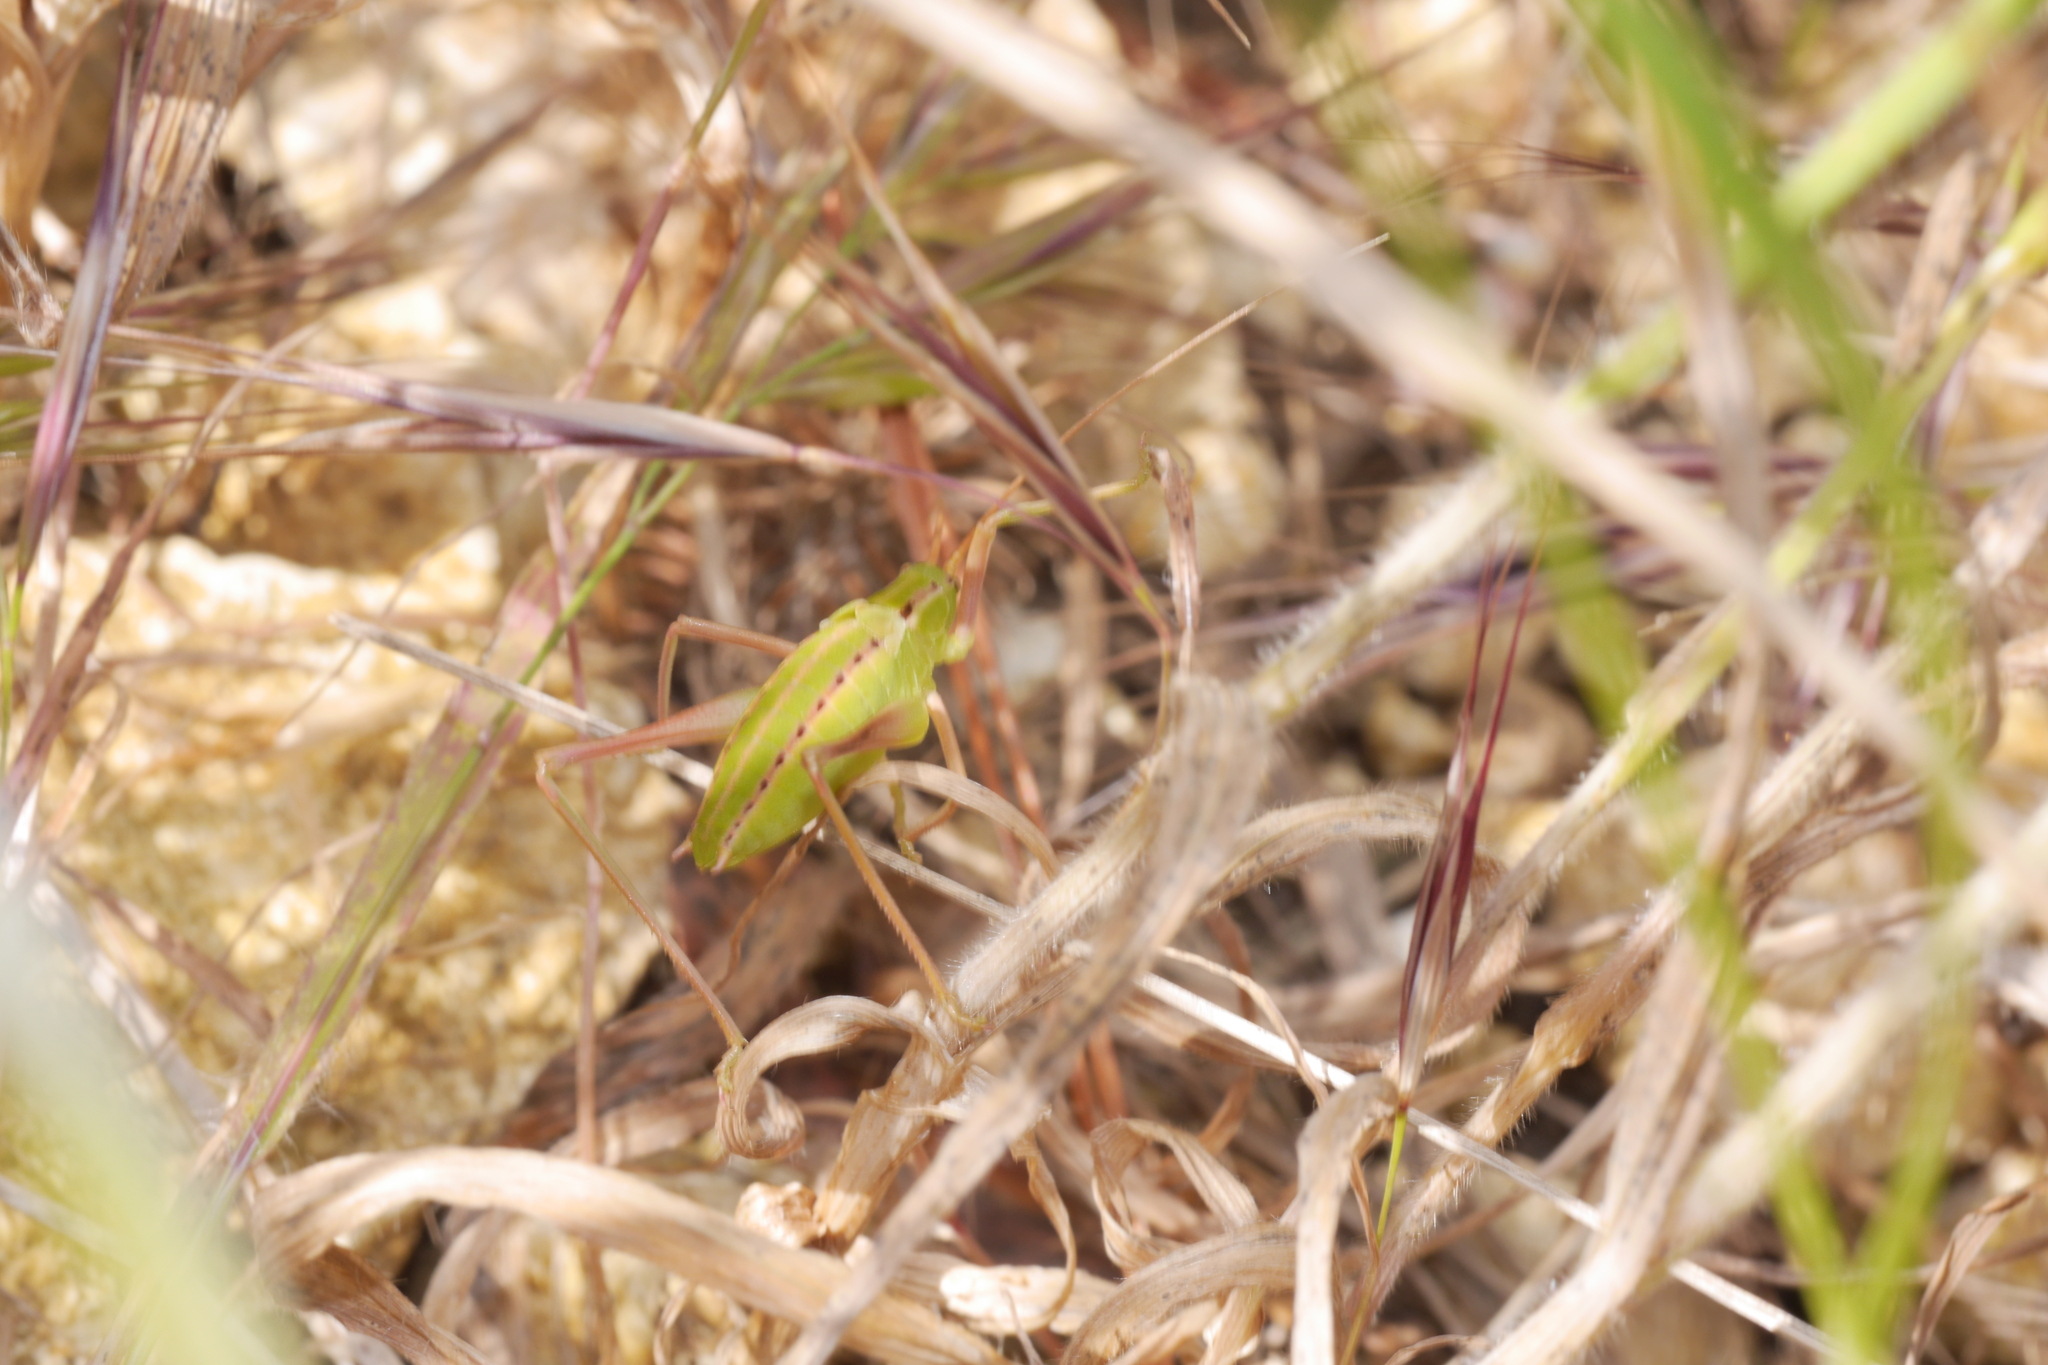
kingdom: Animalia
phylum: Arthropoda
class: Insecta
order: Orthoptera
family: Tettigoniidae
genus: Odontura
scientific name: Odontura stenoxypha
